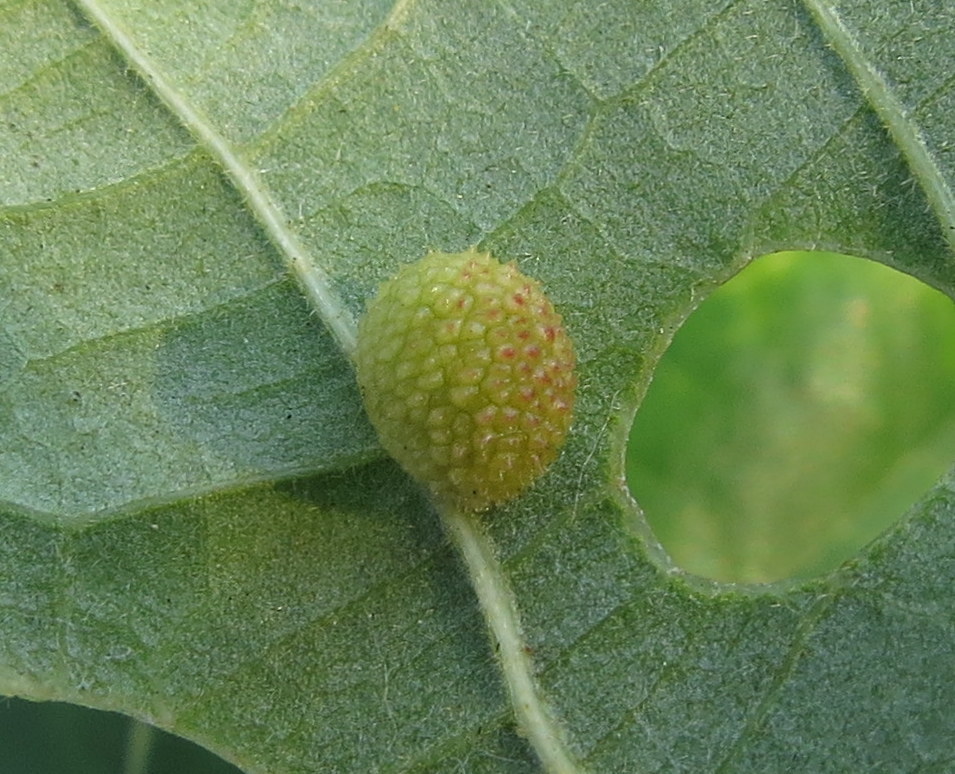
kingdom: Animalia
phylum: Arthropoda
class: Insecta
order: Hymenoptera
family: Cynipidae
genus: Acraspis
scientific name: Acraspis quercushirta
